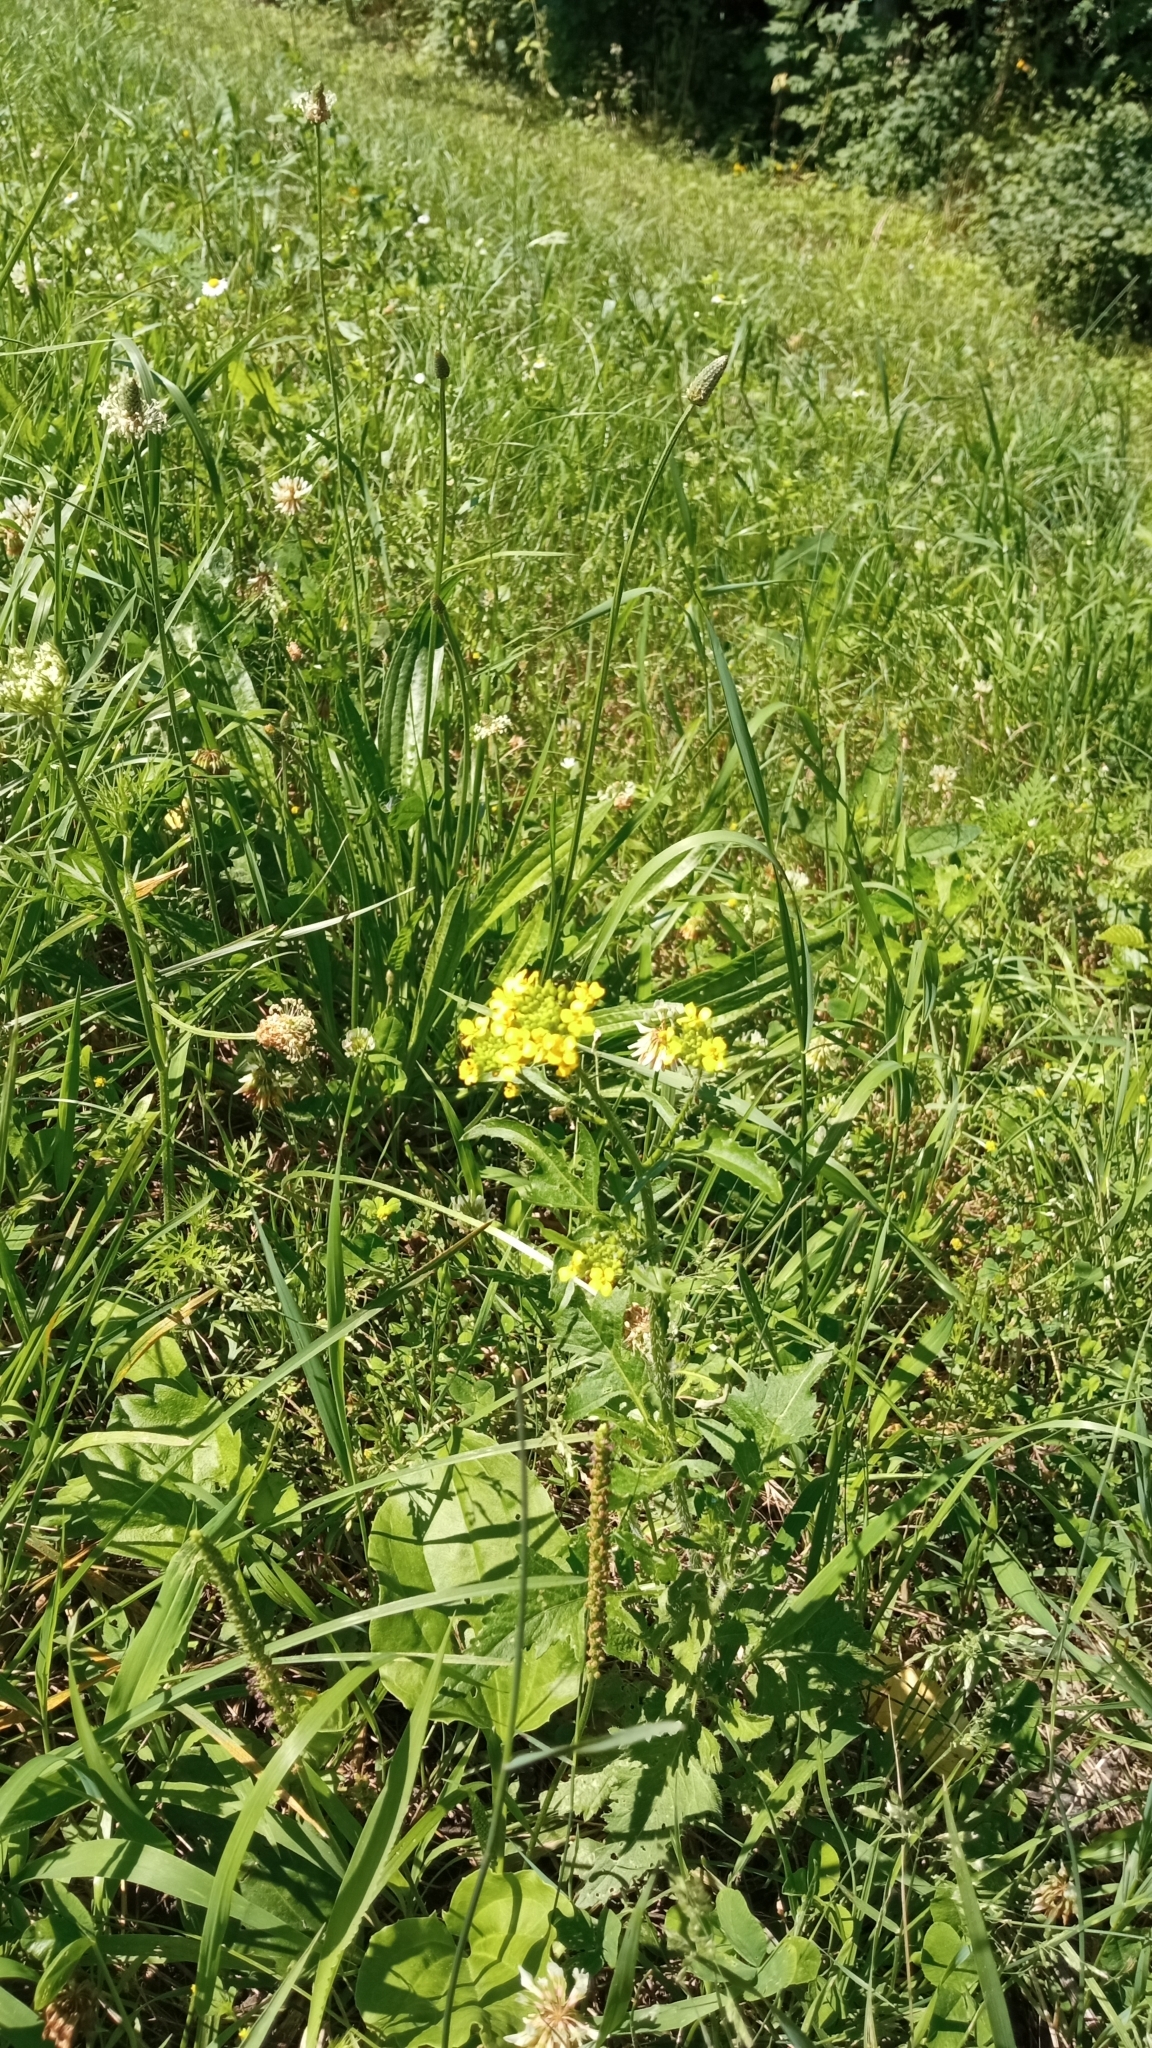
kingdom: Plantae
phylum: Tracheophyta
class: Magnoliopsida
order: Brassicales
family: Brassicaceae
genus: Sisymbrium
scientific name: Sisymbrium loeselii
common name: False london-rocket
